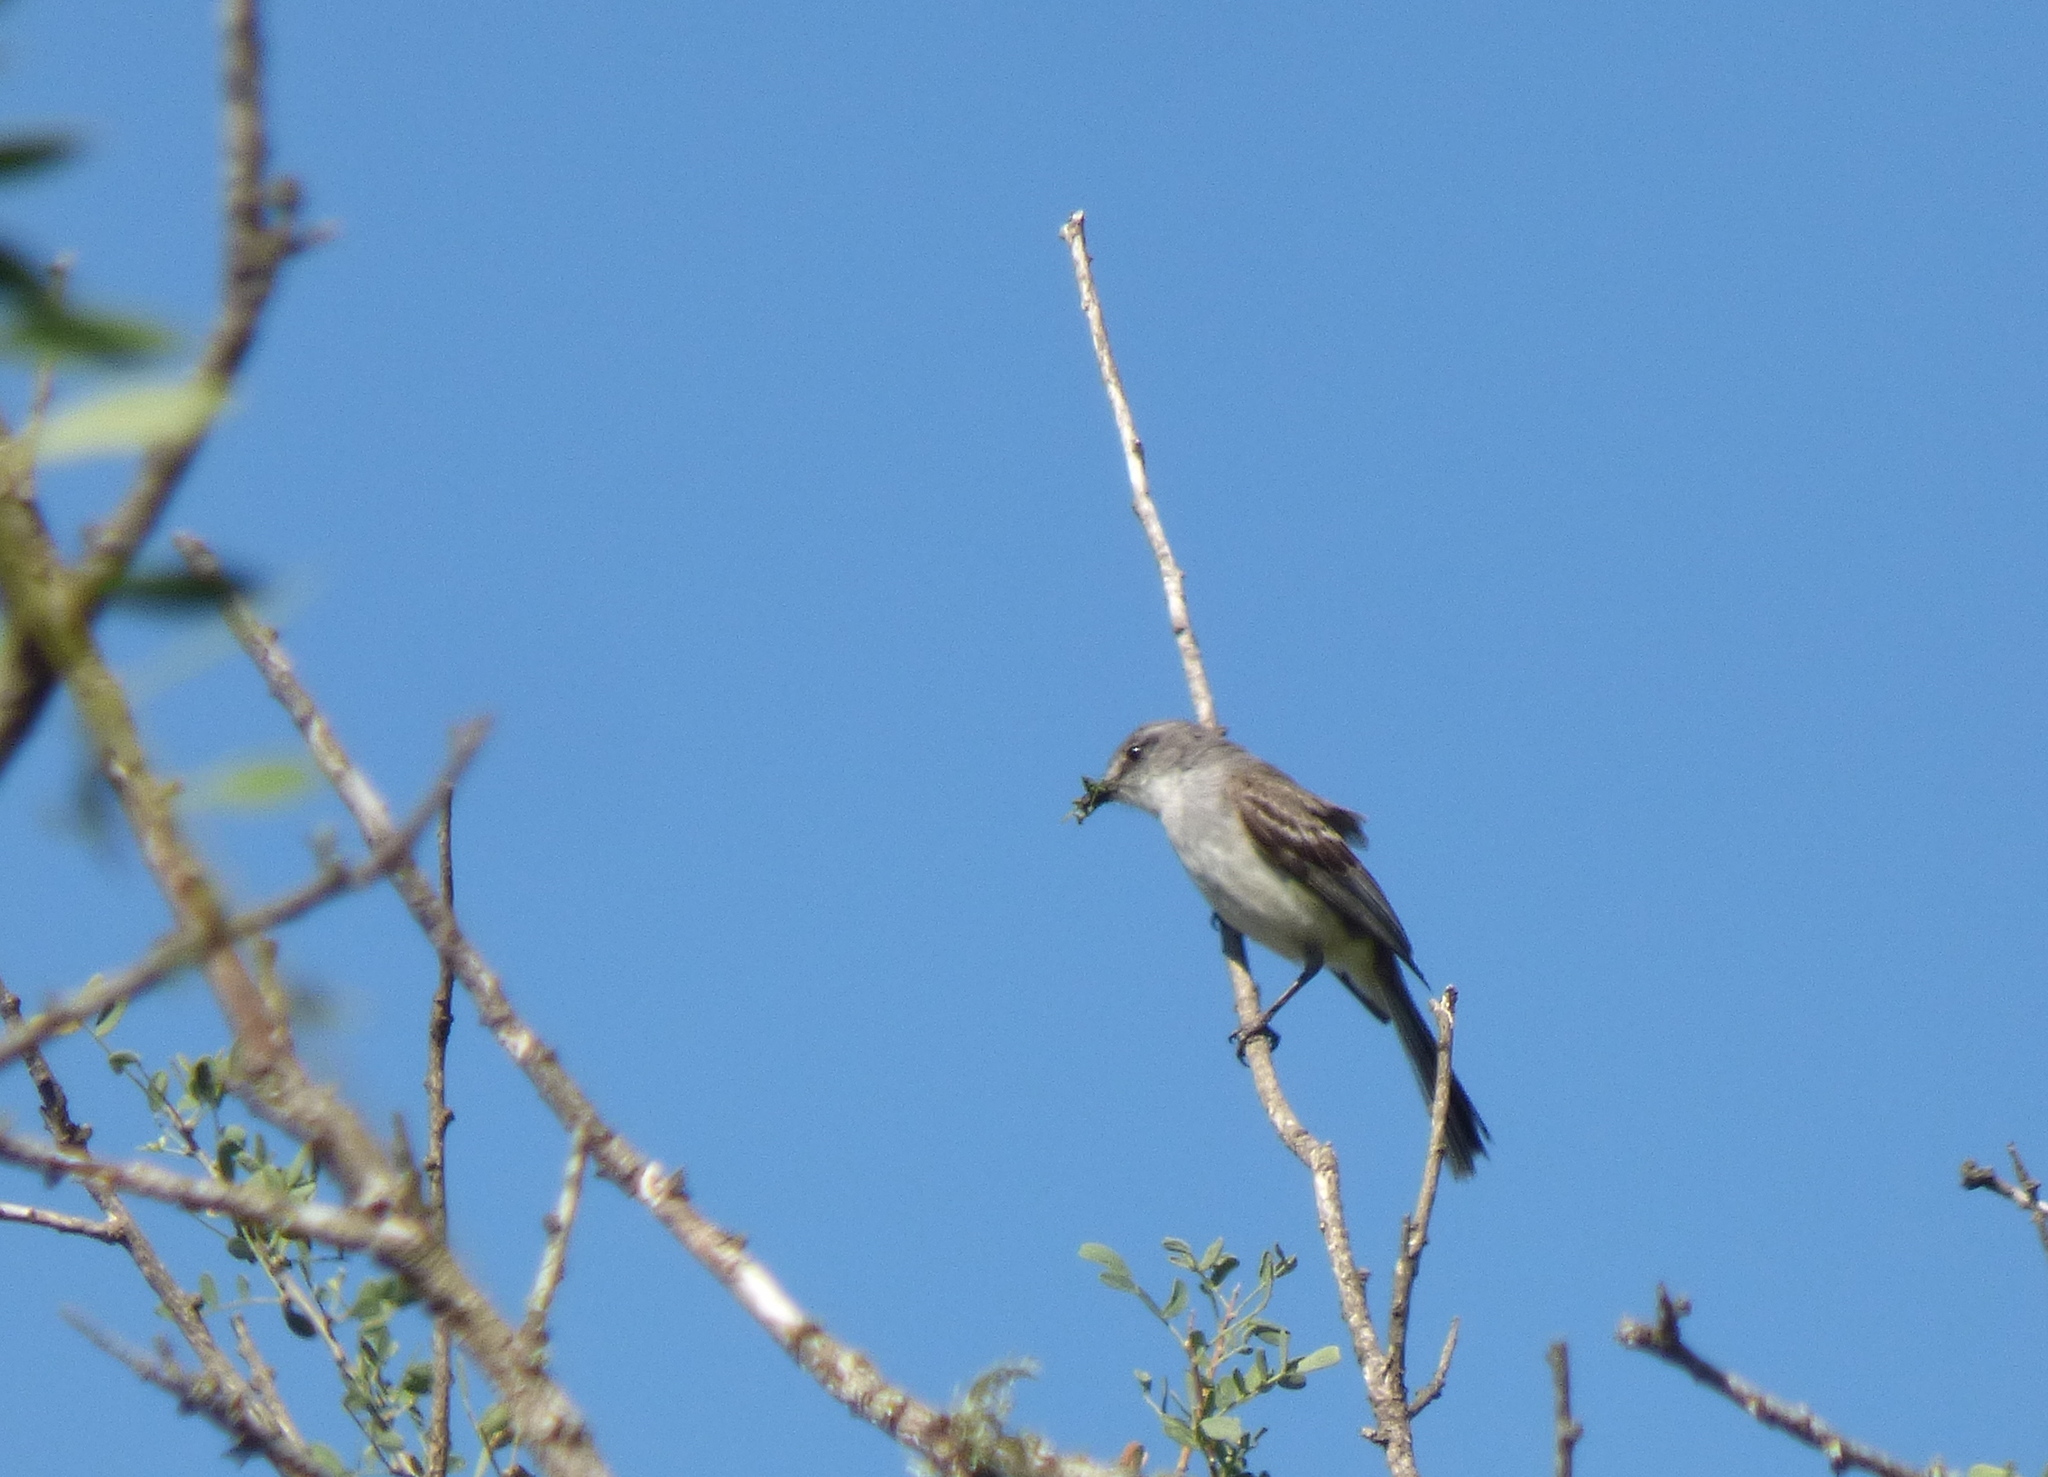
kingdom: Animalia
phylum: Chordata
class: Aves
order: Passeriformes
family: Tyrannidae
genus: Suiriri
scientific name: Suiriri suiriri
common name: Suiriri flycatcher
